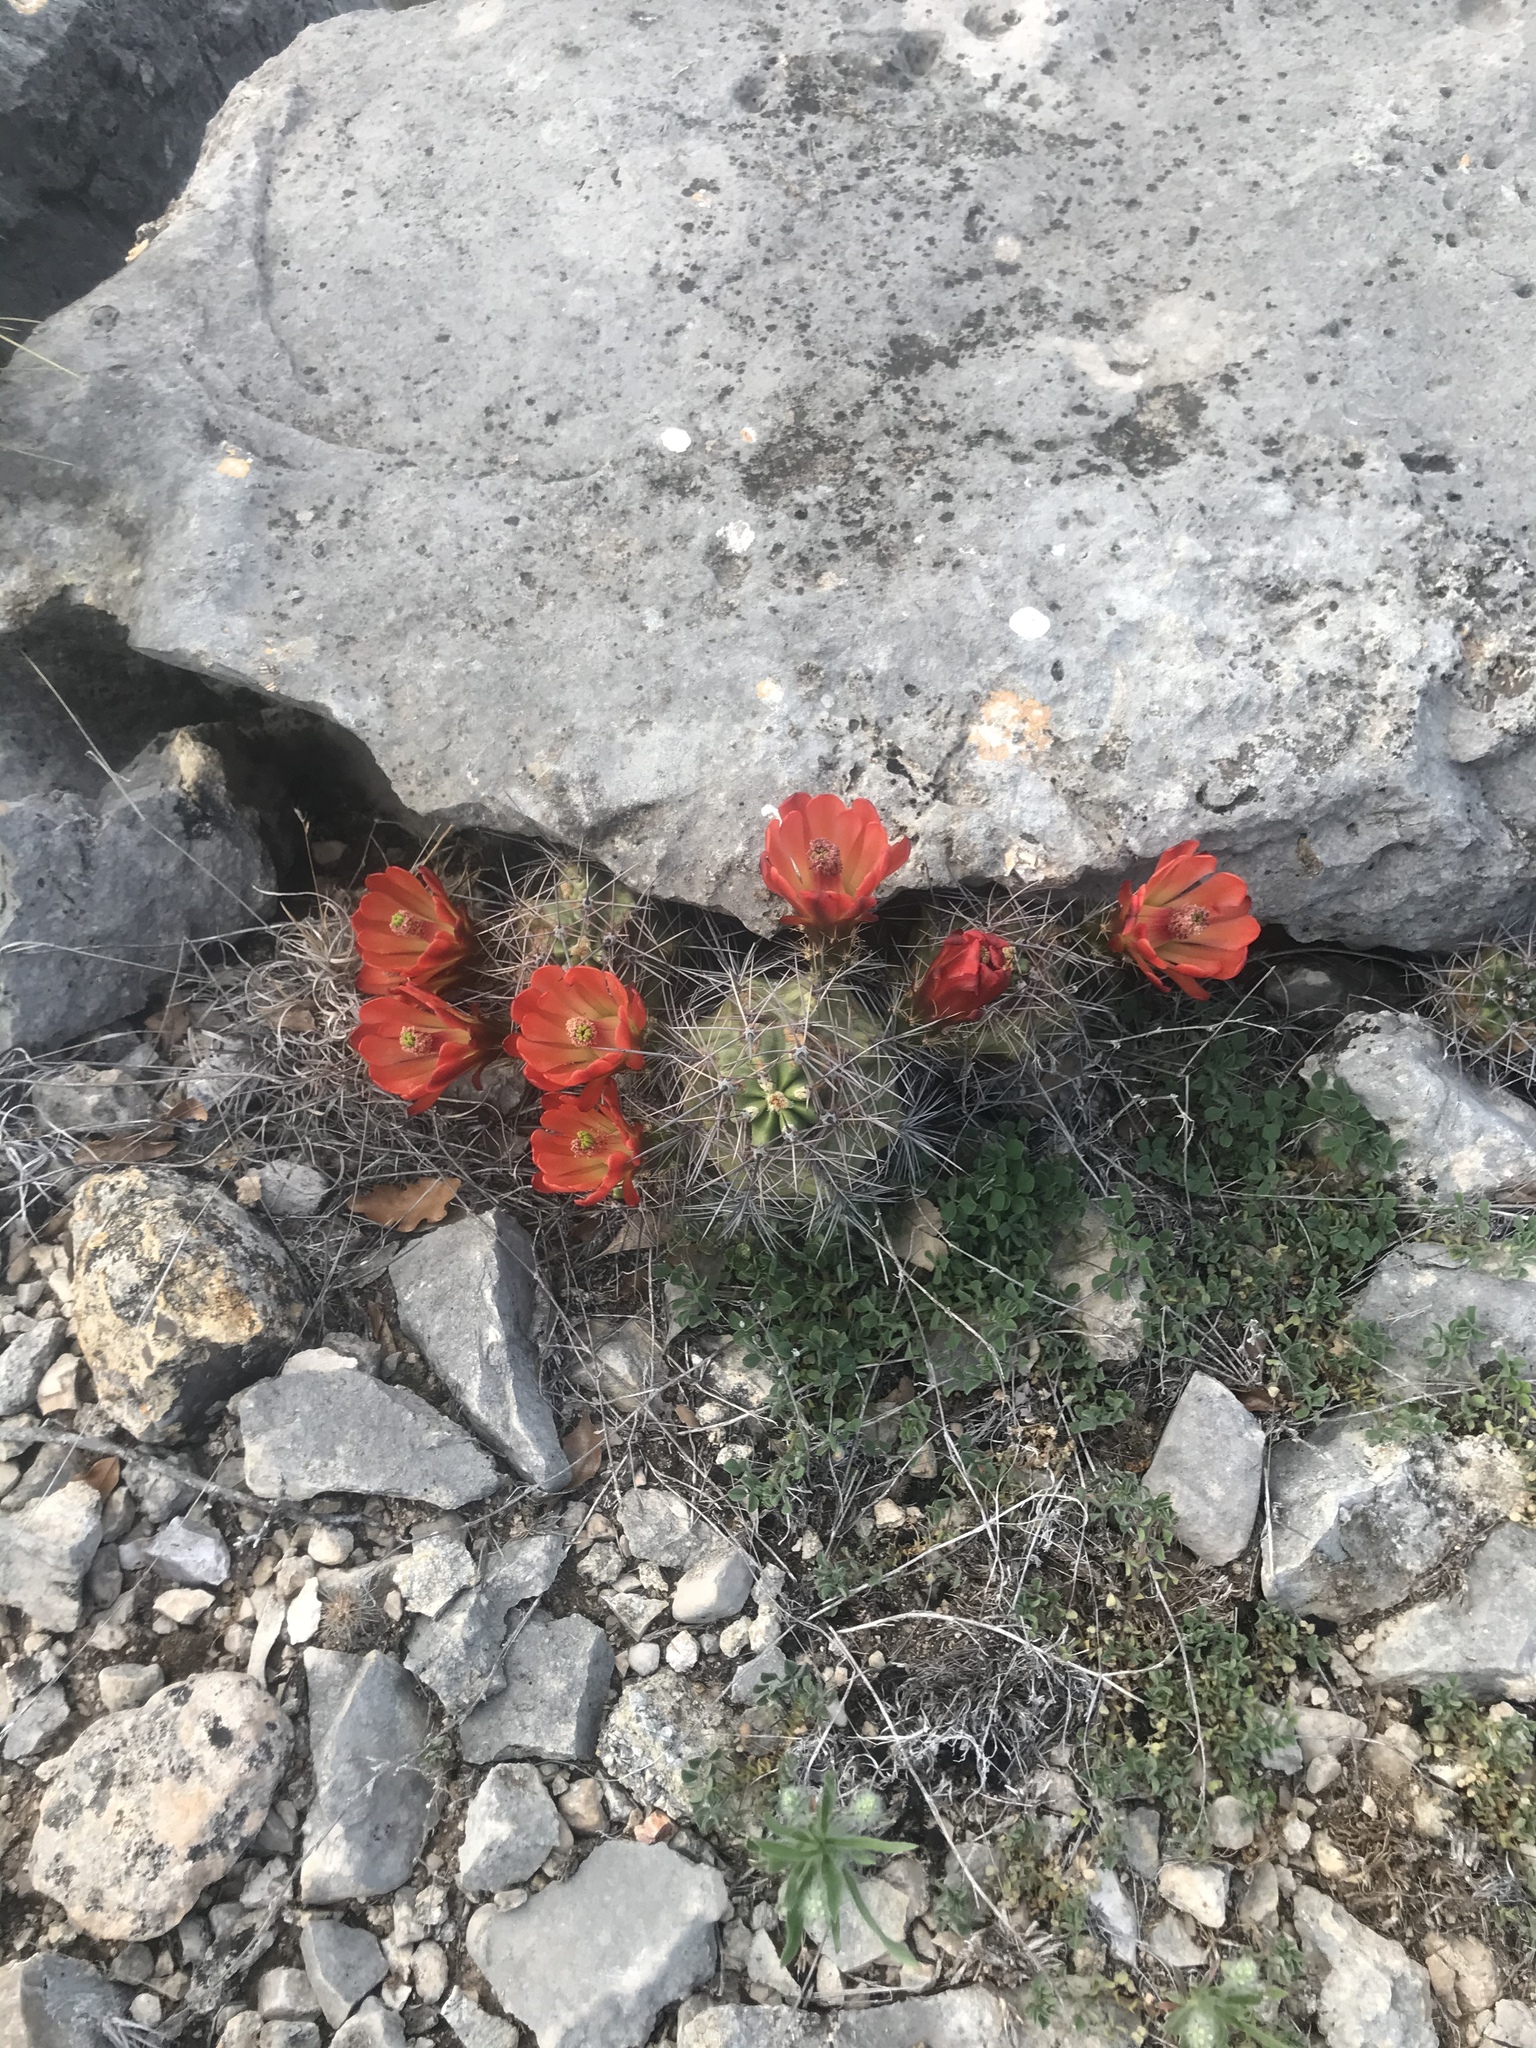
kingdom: Plantae
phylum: Tracheophyta
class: Magnoliopsida
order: Caryophyllales
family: Cactaceae
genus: Echinocereus
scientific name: Echinocereus coccineus
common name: Scarlet hedgehog cactus
